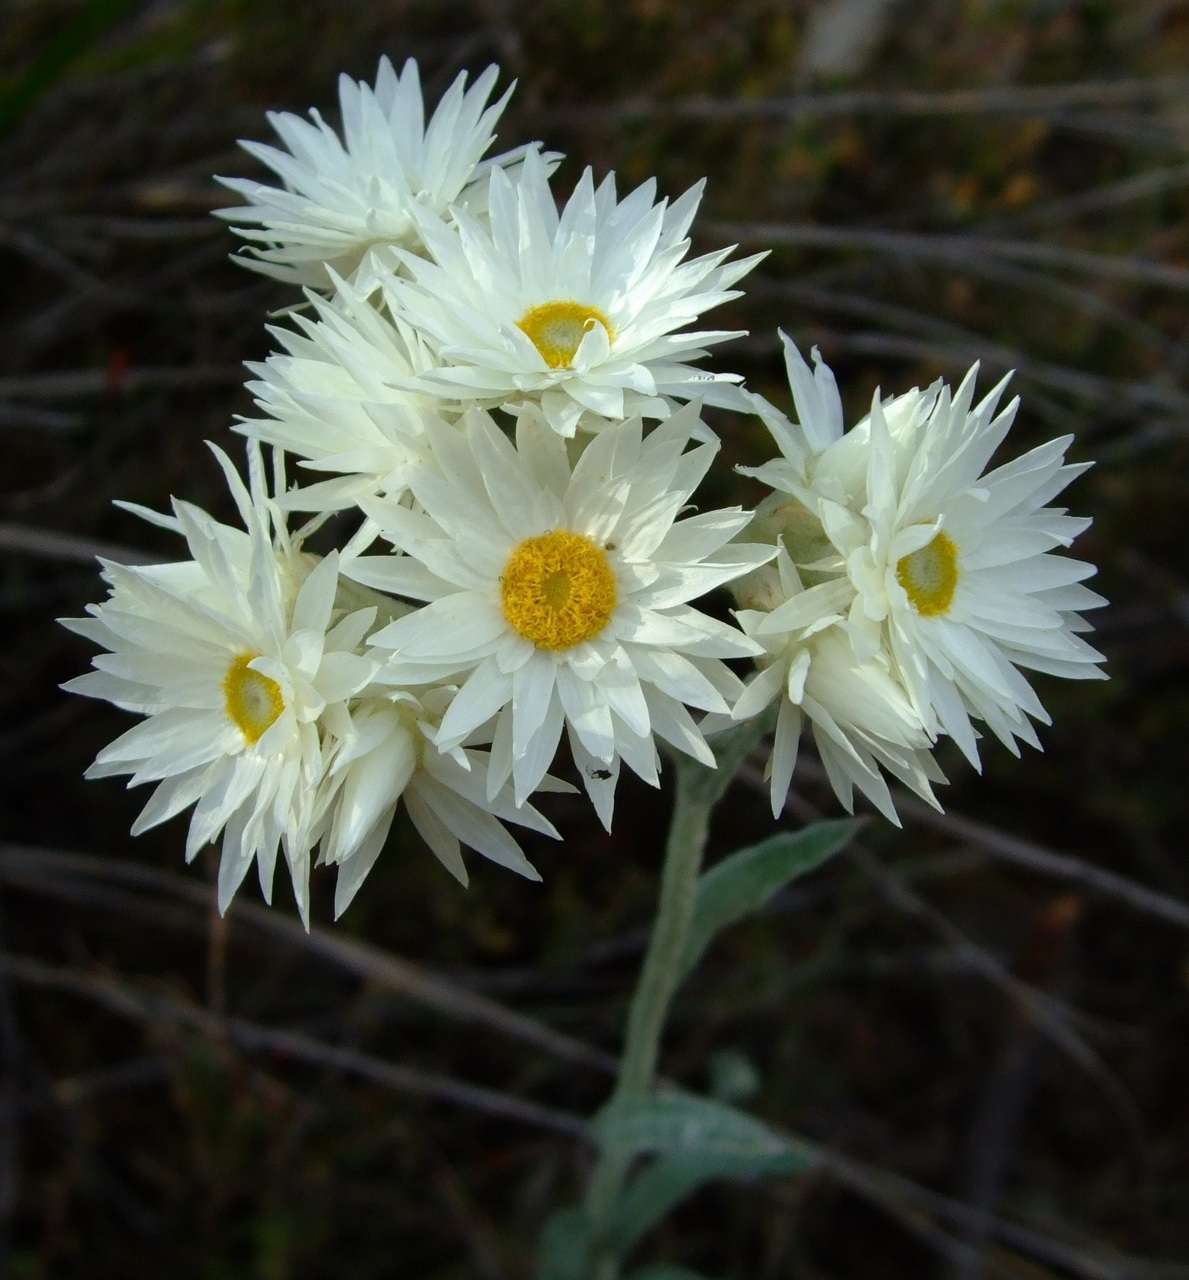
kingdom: Plantae
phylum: Tracheophyta
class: Magnoliopsida
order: Asterales
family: Asteraceae
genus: Argentipallium
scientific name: Argentipallium blandowskianum
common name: Woolly everlasting
